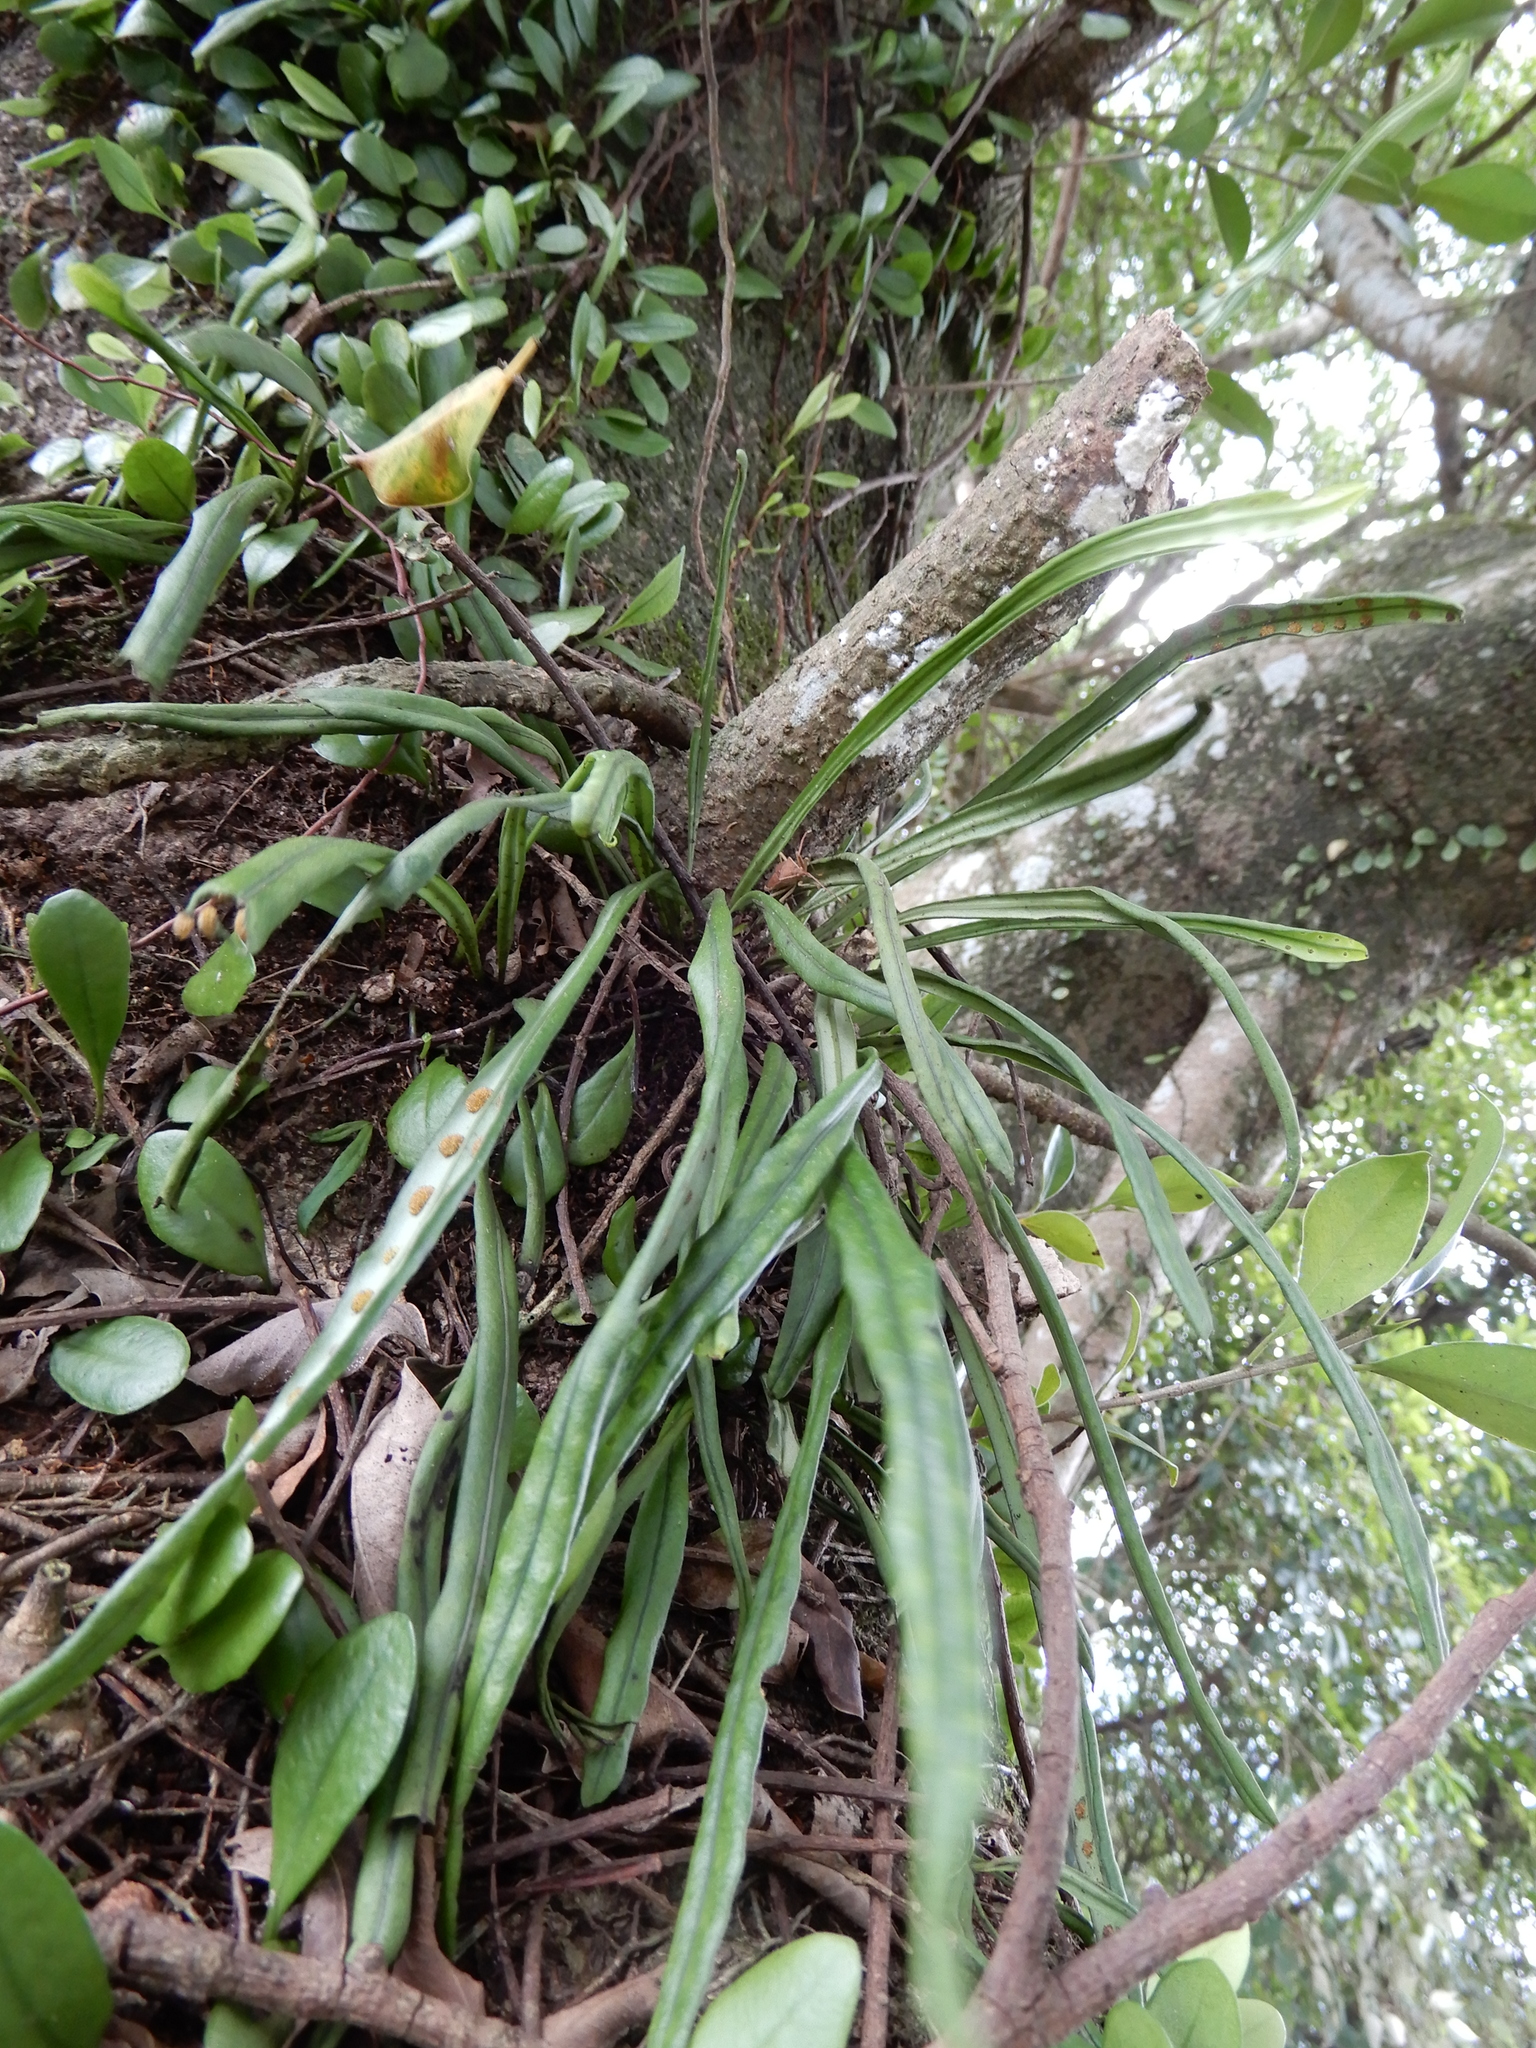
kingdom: Plantae
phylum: Tracheophyta
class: Polypodiopsida
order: Polypodiales
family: Polypodiaceae
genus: Lepisorus
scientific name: Lepisorus thunbergianus
